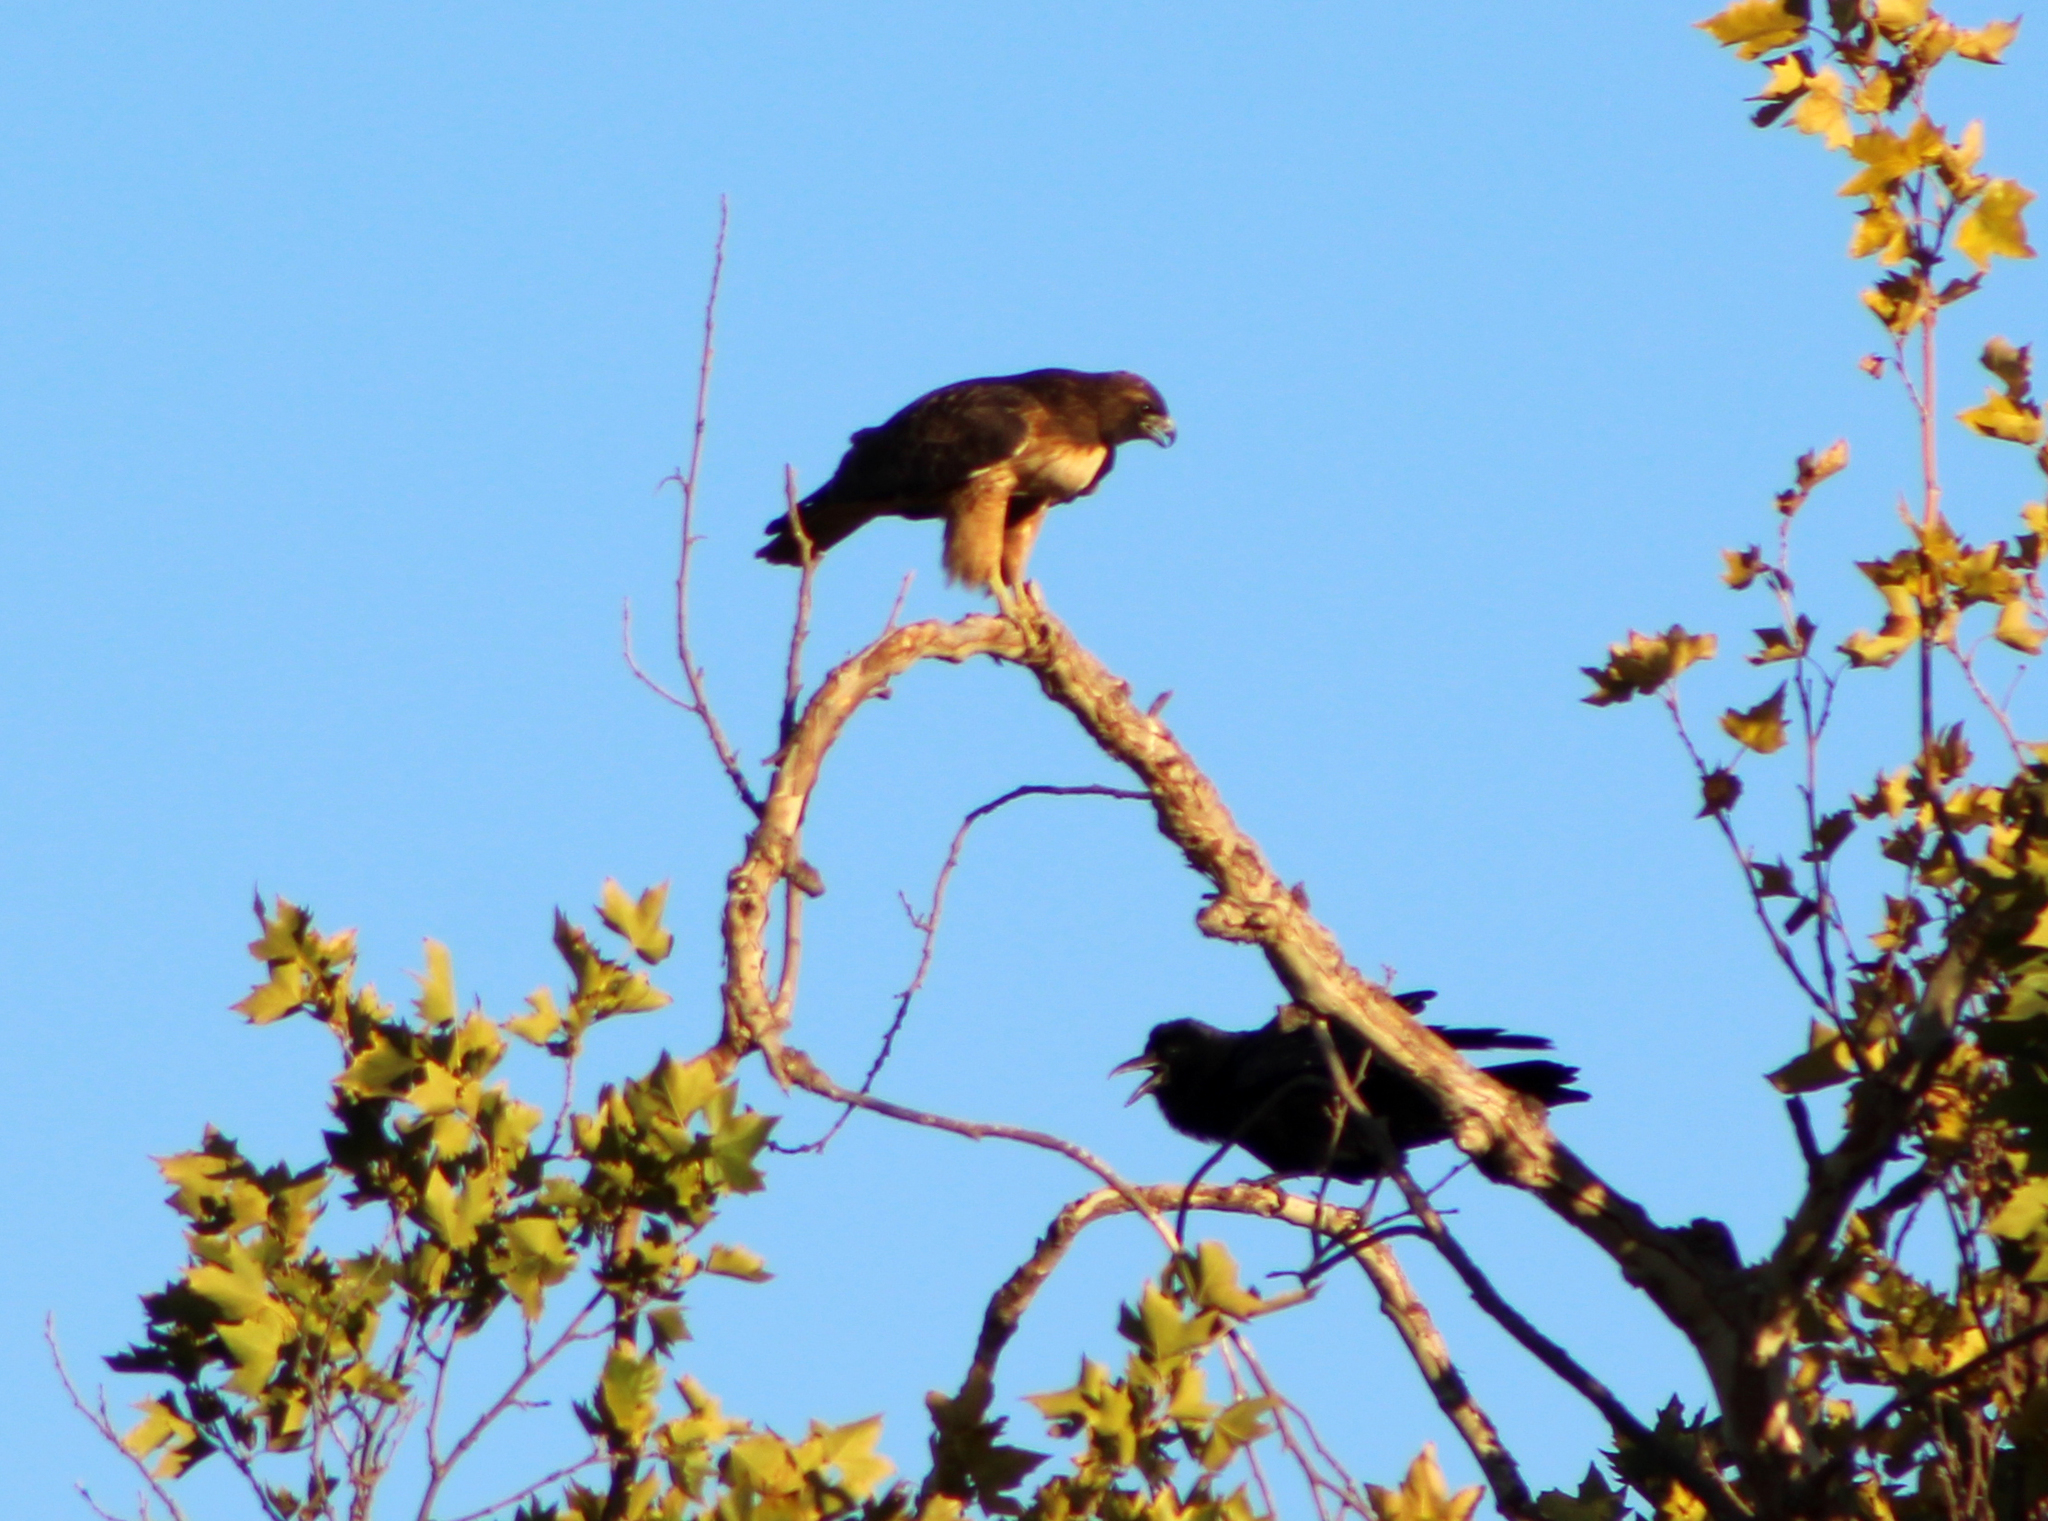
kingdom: Animalia
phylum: Chordata
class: Aves
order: Passeriformes
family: Corvidae
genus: Corvus
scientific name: Corvus corax
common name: Common raven
